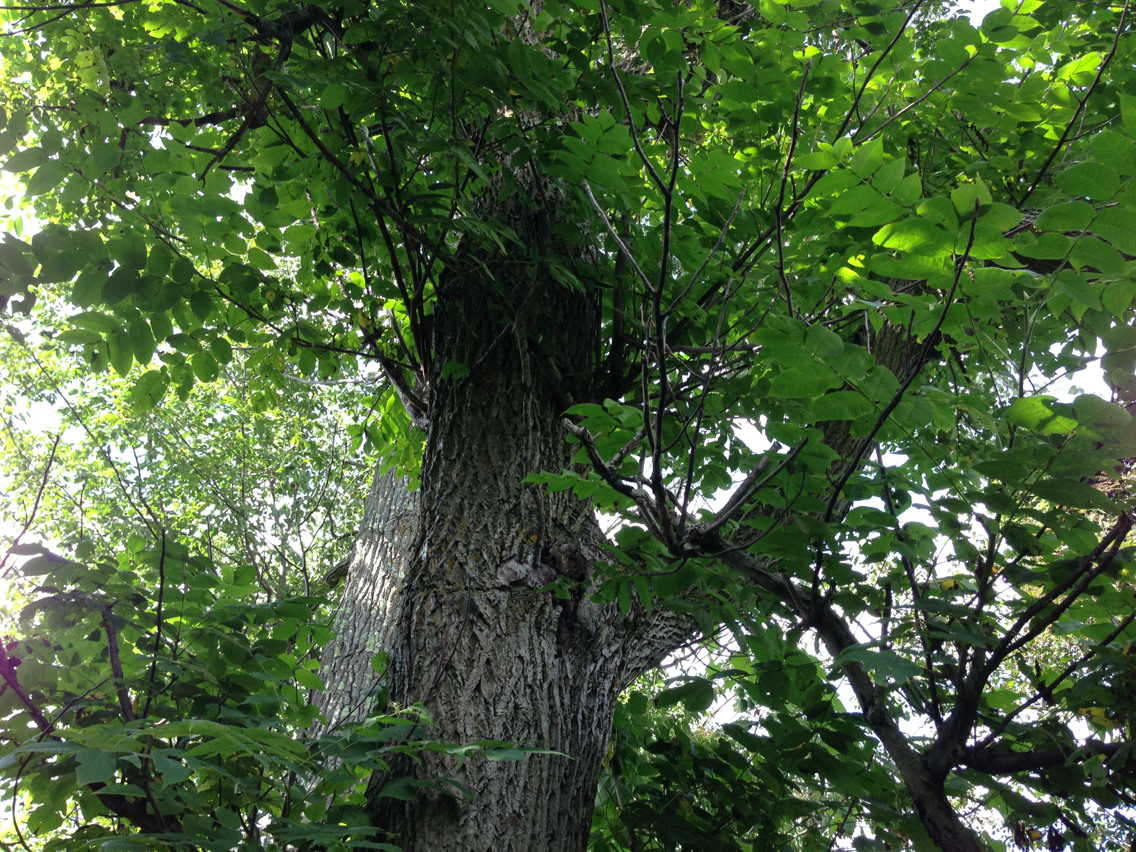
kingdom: Plantae
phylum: Tracheophyta
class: Magnoliopsida
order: Fagales
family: Juglandaceae
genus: Juglans
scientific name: Juglans cinerea
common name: Butternut
